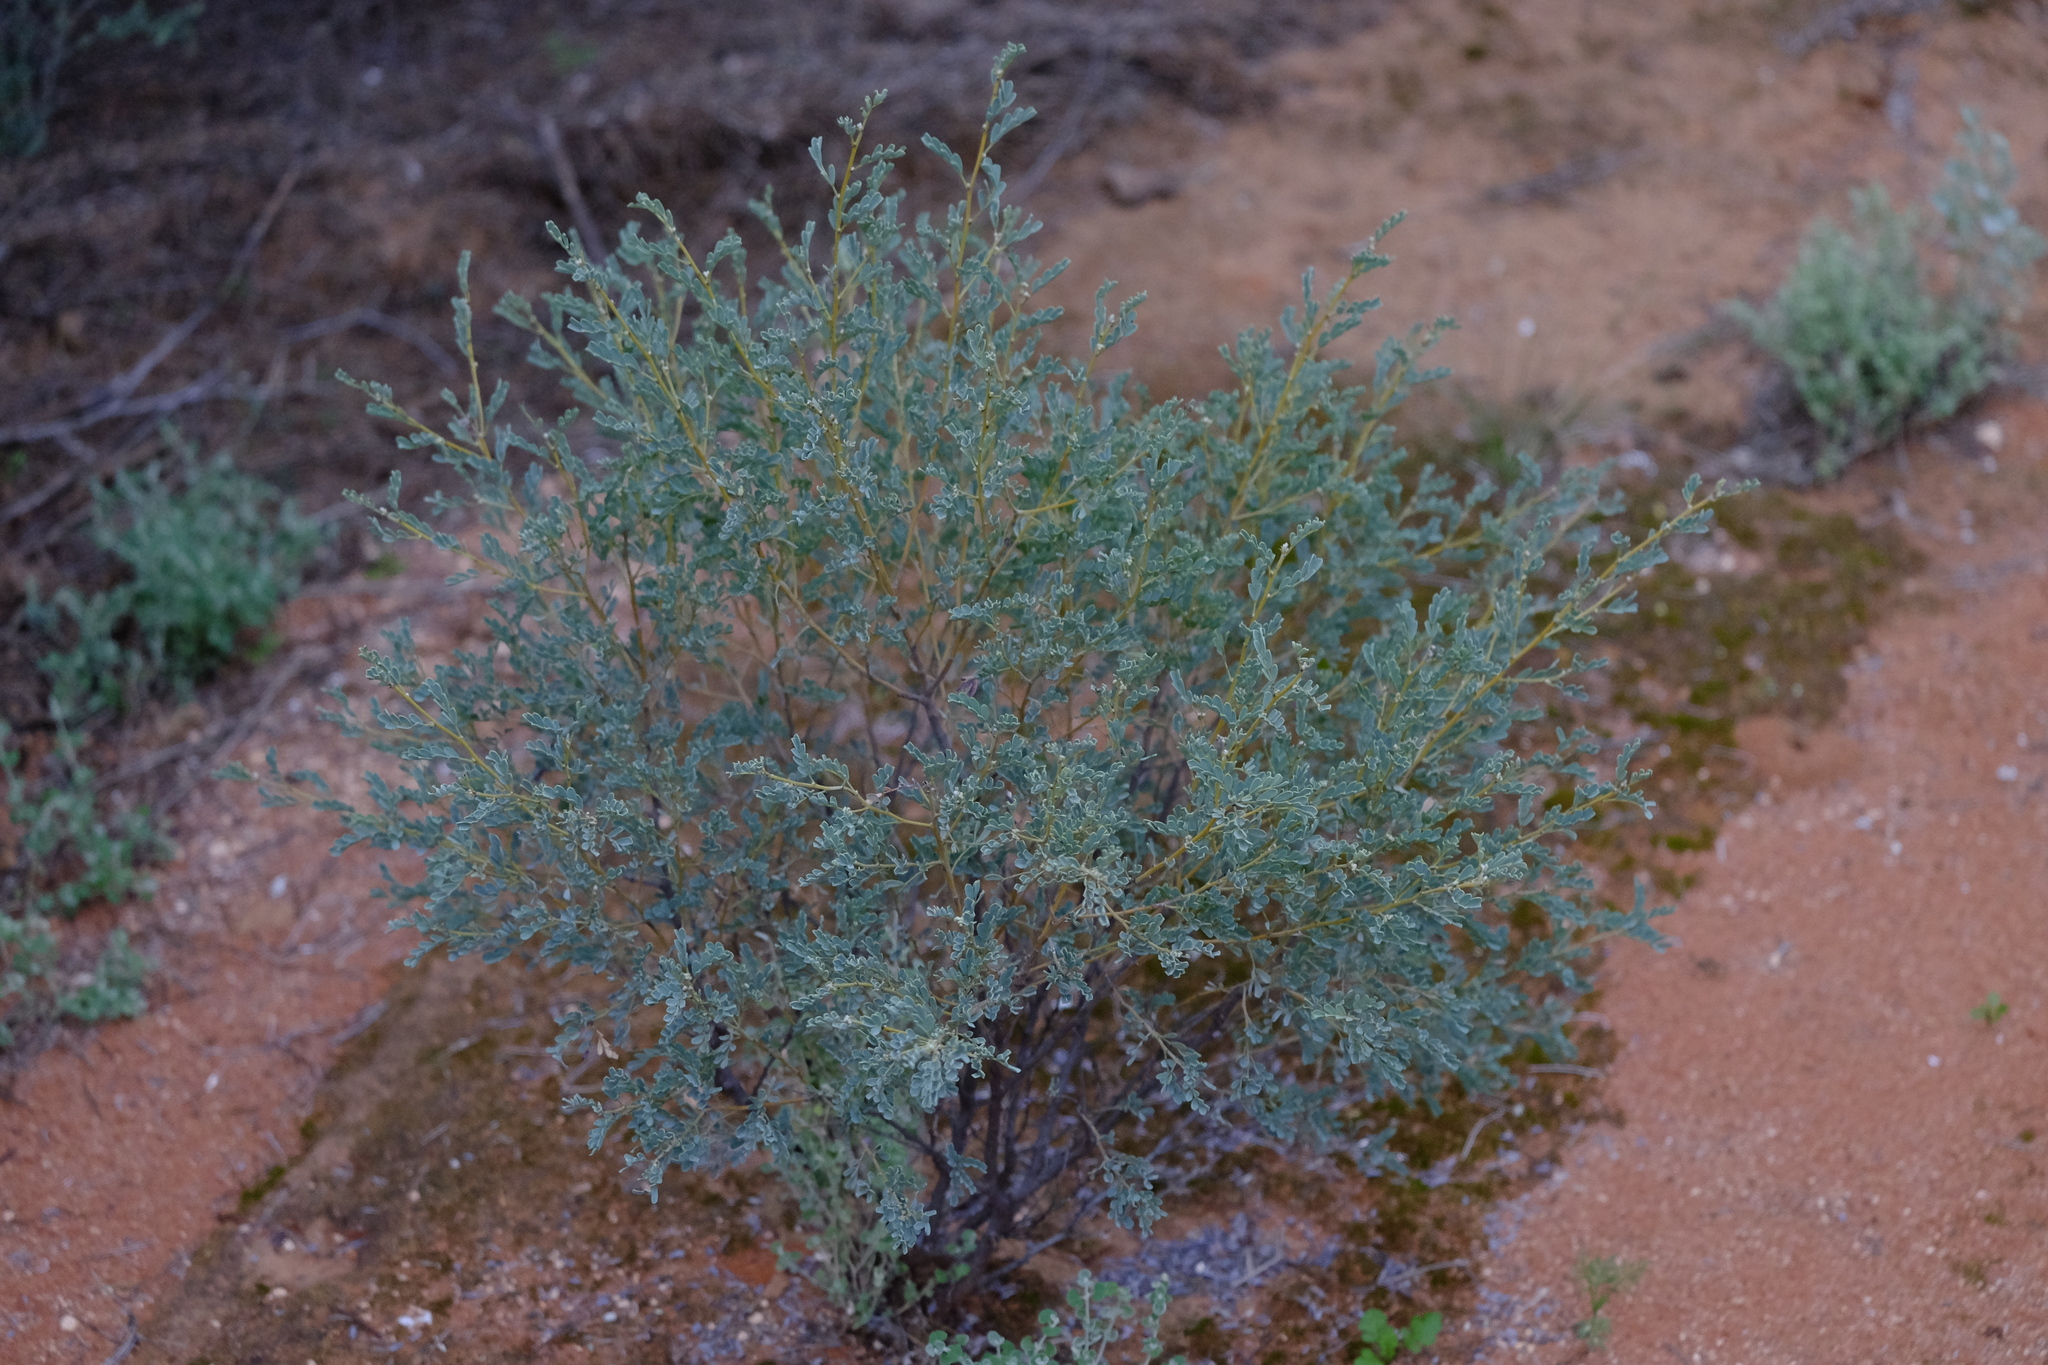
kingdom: Plantae
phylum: Tracheophyta
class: Magnoliopsida
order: Fabales
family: Fabaceae
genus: Senna
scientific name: Senna artemisioides
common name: Burnt-leaved acacia
